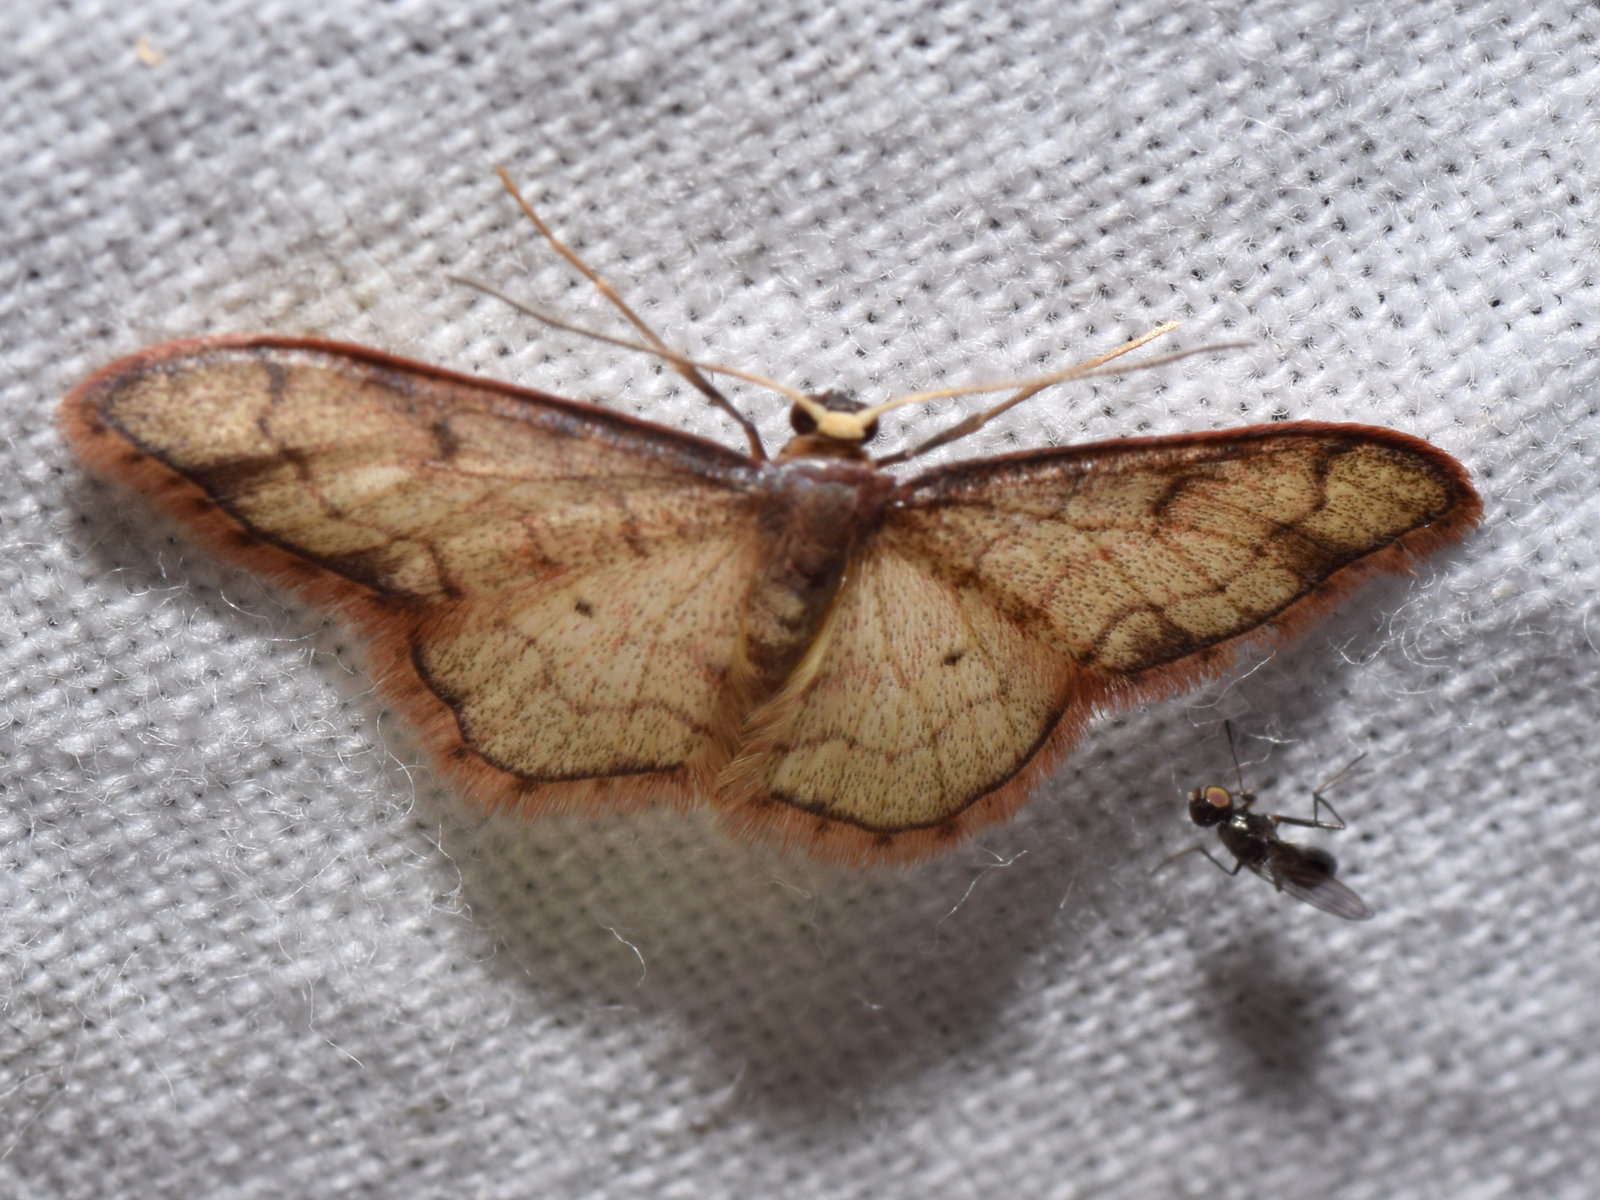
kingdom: Animalia
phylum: Arthropoda
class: Insecta
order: Lepidoptera
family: Geometridae
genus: Idaea
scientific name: Idaea protensa
